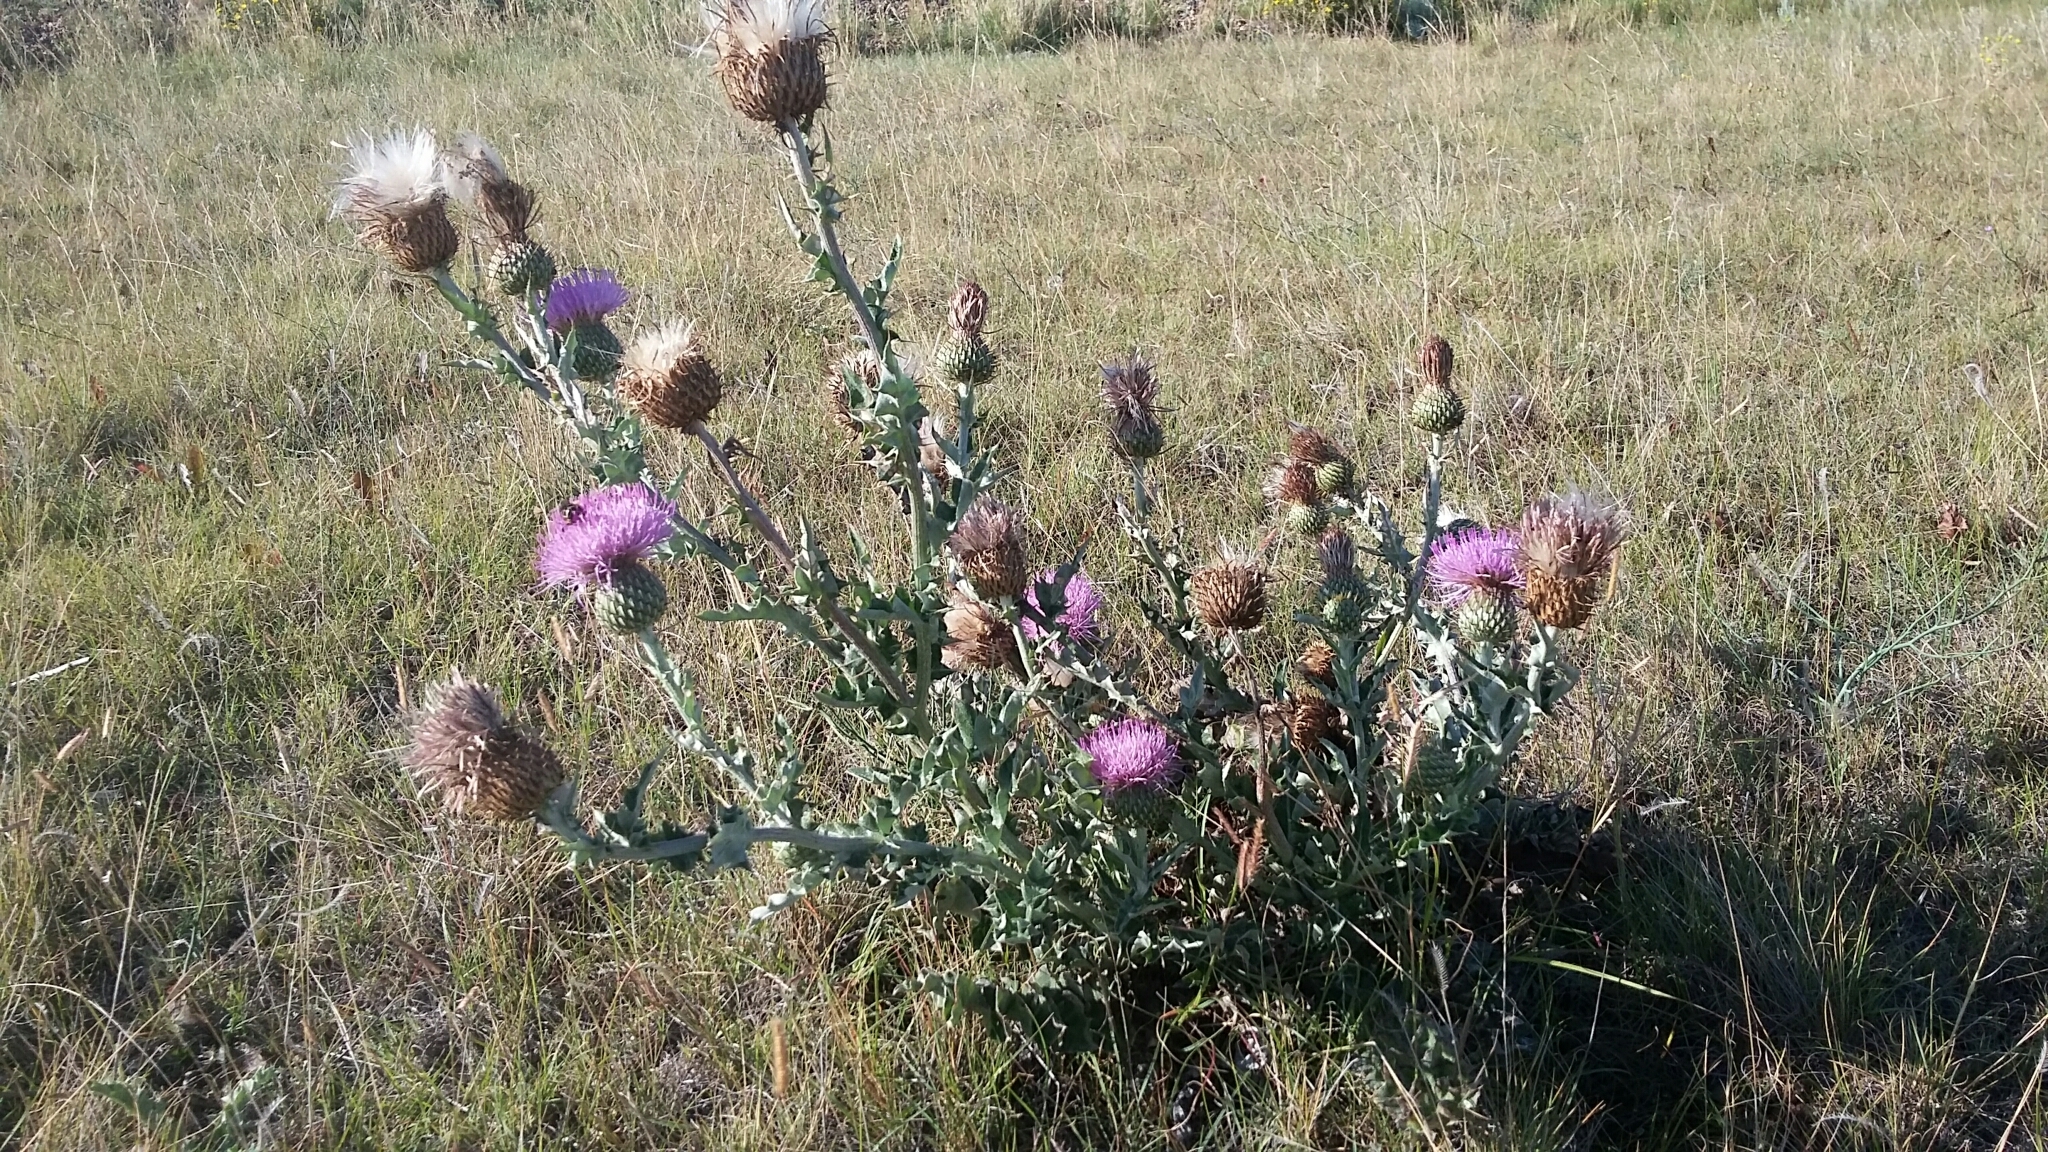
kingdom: Plantae
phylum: Tracheophyta
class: Magnoliopsida
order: Asterales
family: Asteraceae
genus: Cirsium
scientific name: Cirsium undulatum
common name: Pasture thistle
